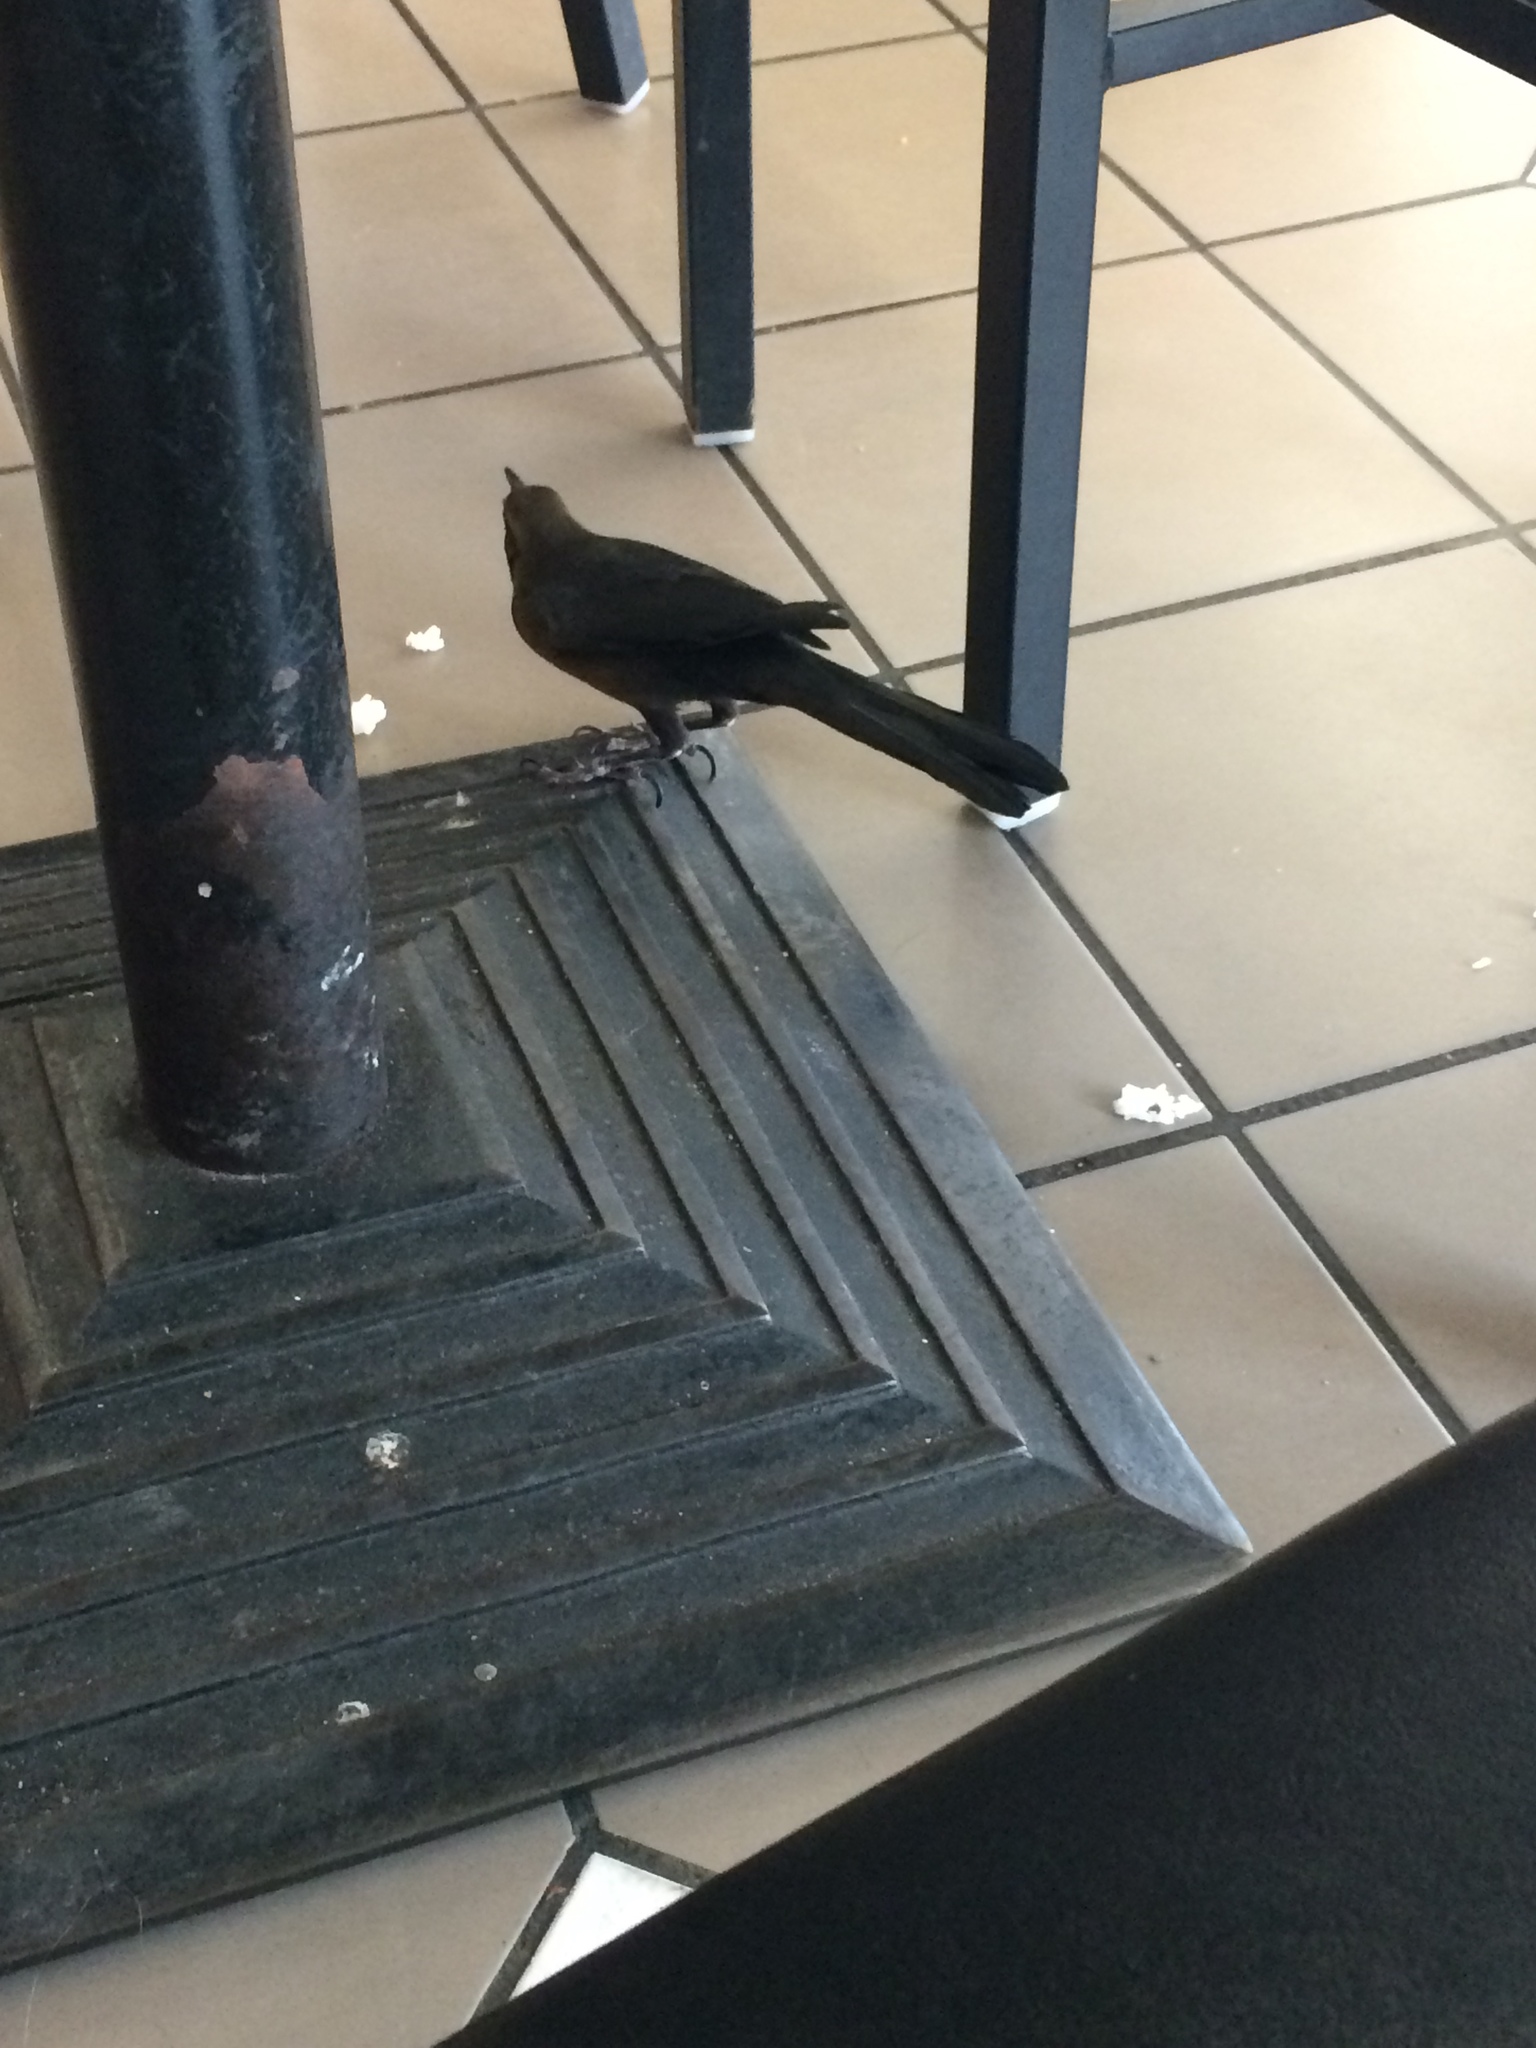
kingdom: Animalia
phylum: Chordata
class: Aves
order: Passeriformes
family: Icteridae
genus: Quiscalus
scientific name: Quiscalus mexicanus
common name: Great-tailed grackle
